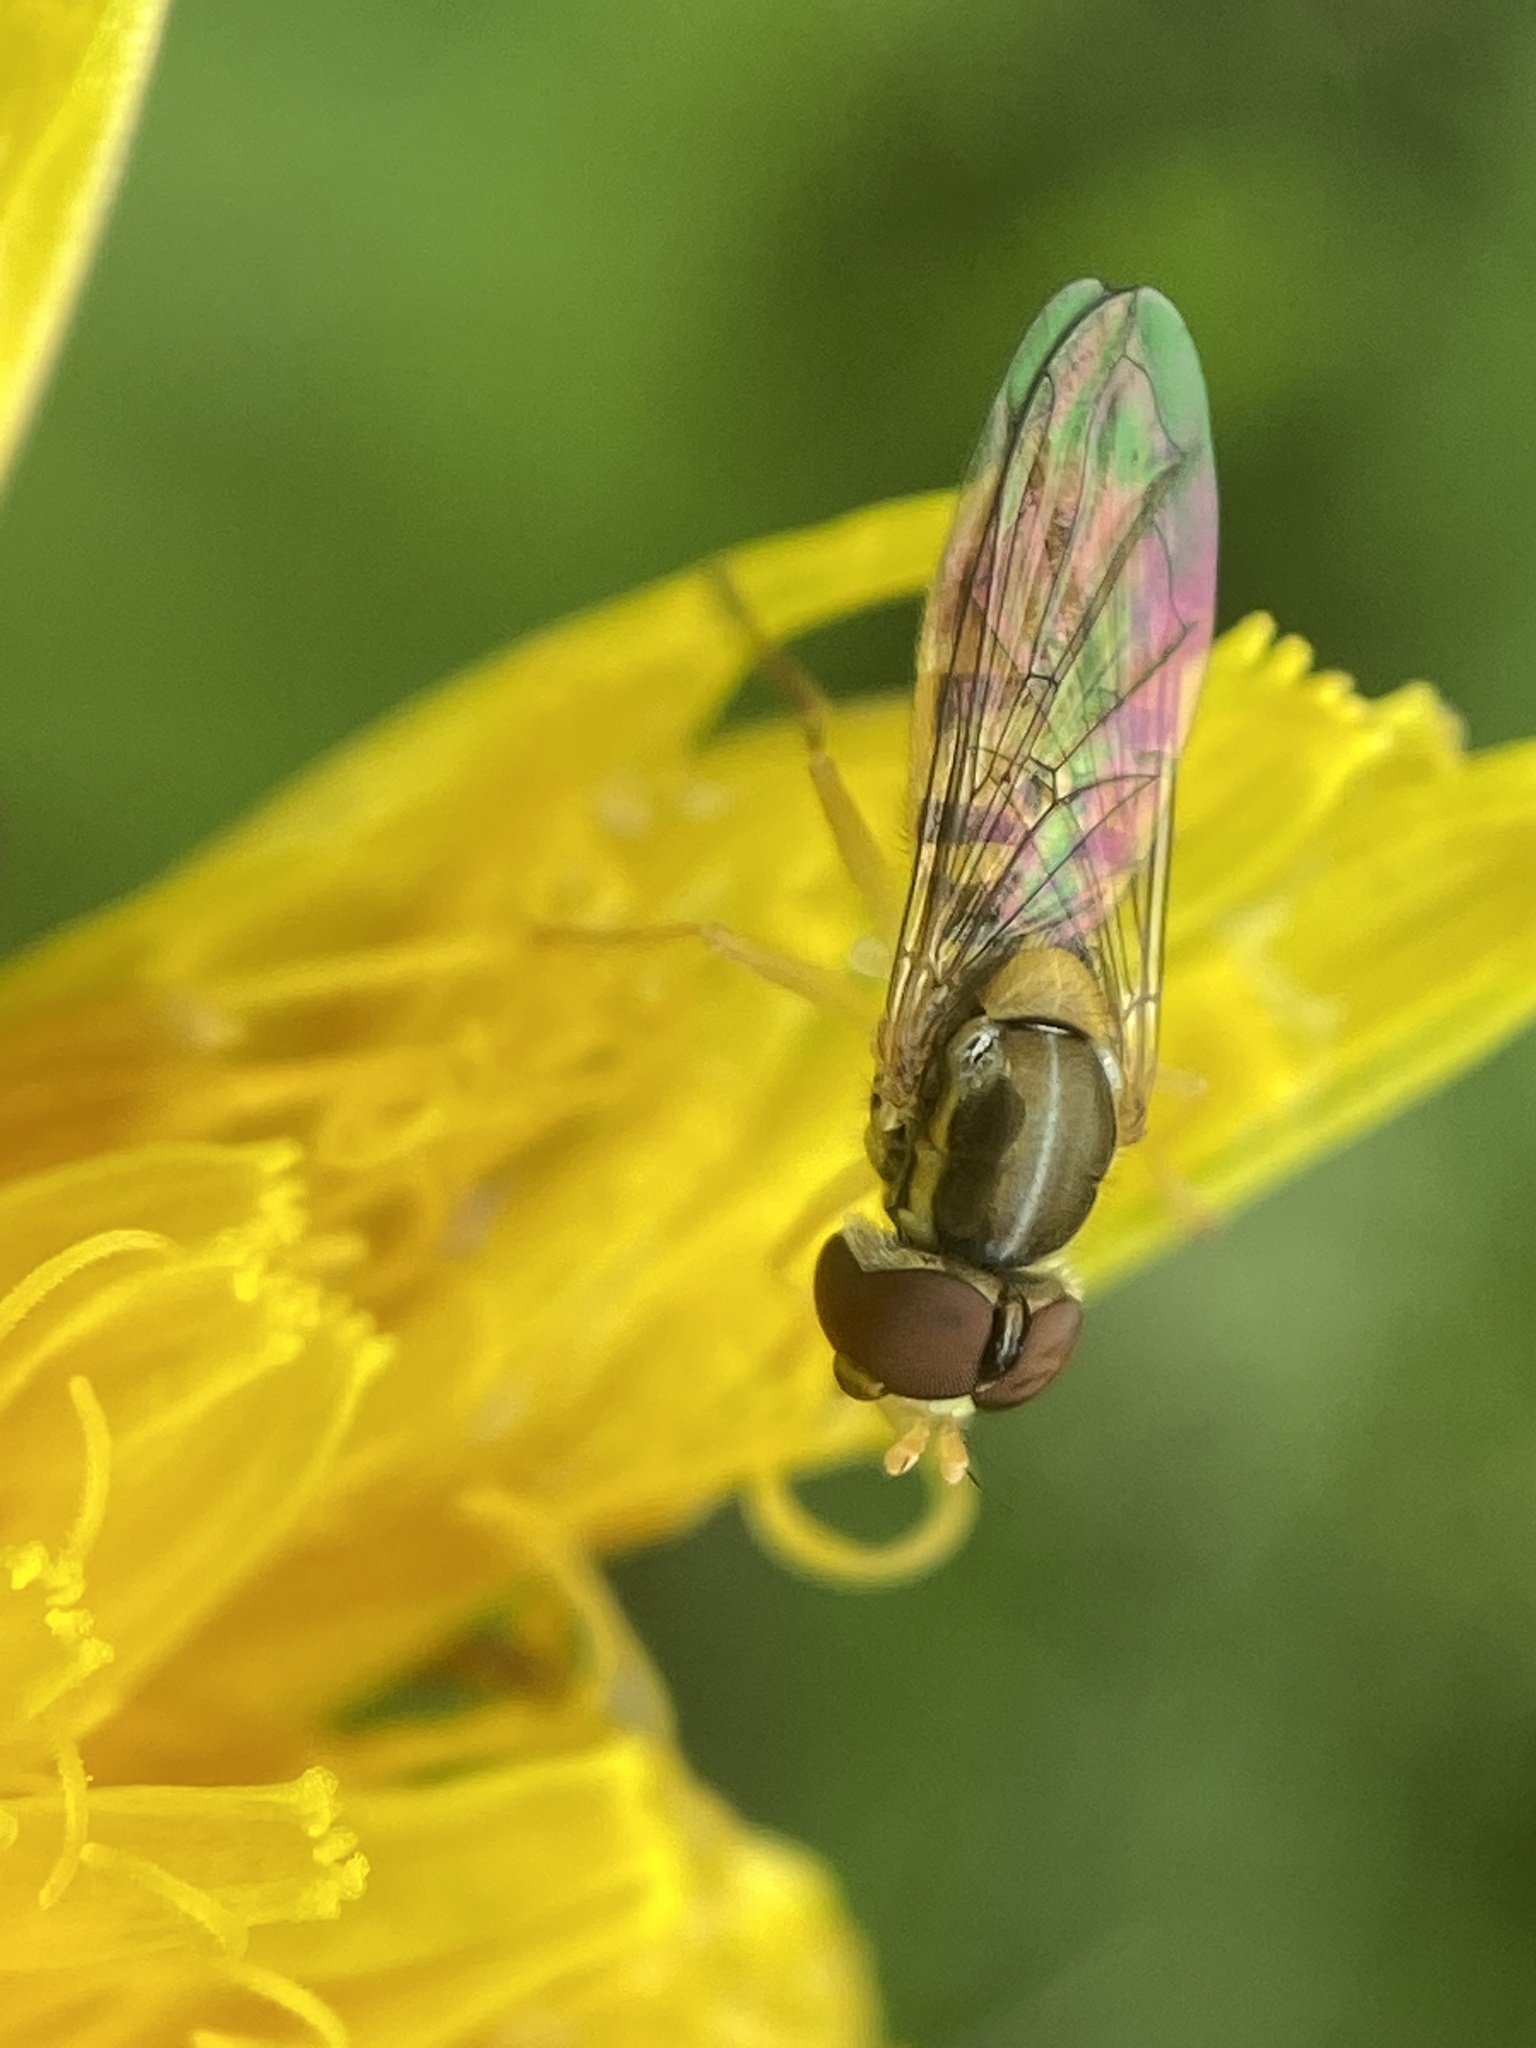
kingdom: Animalia
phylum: Arthropoda
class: Insecta
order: Diptera
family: Syrphidae
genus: Toxomerus
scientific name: Toxomerus marginatus
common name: Syrphid fly
